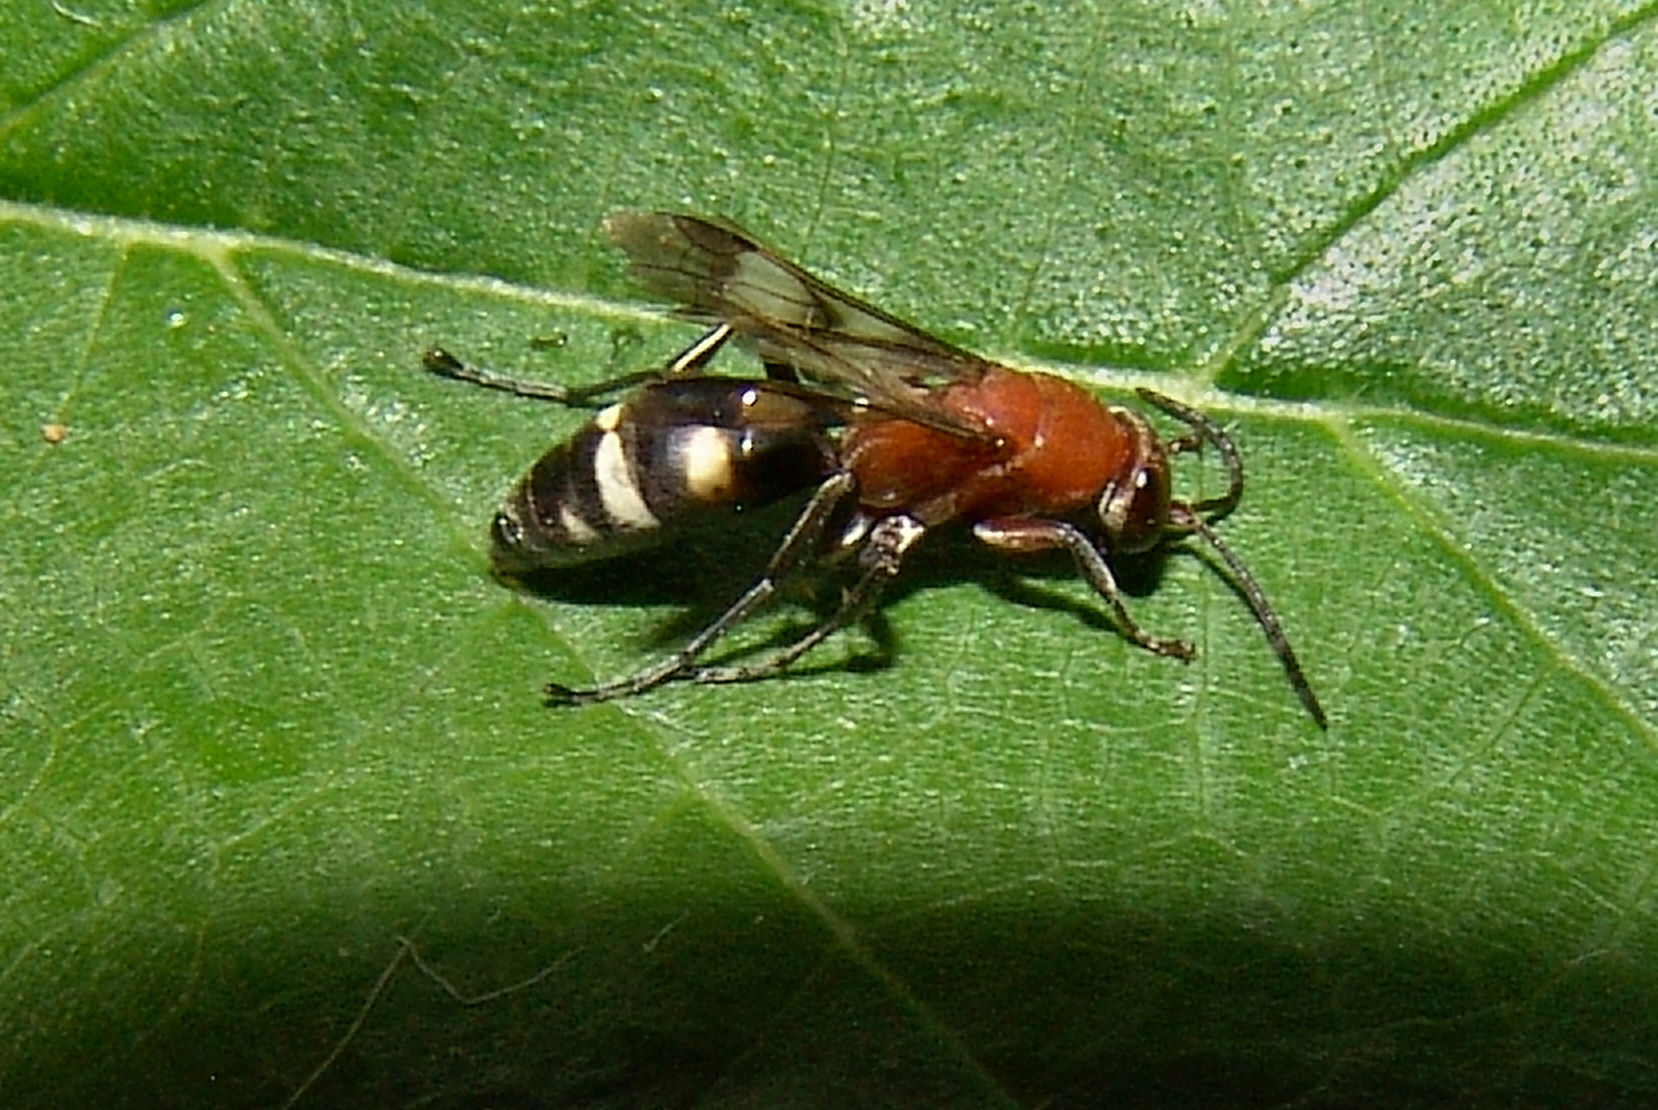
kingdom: Animalia
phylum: Arthropoda
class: Insecta
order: Hymenoptera
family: Pompilidae
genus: Psorthaspis
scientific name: Psorthaspis luctuosa
